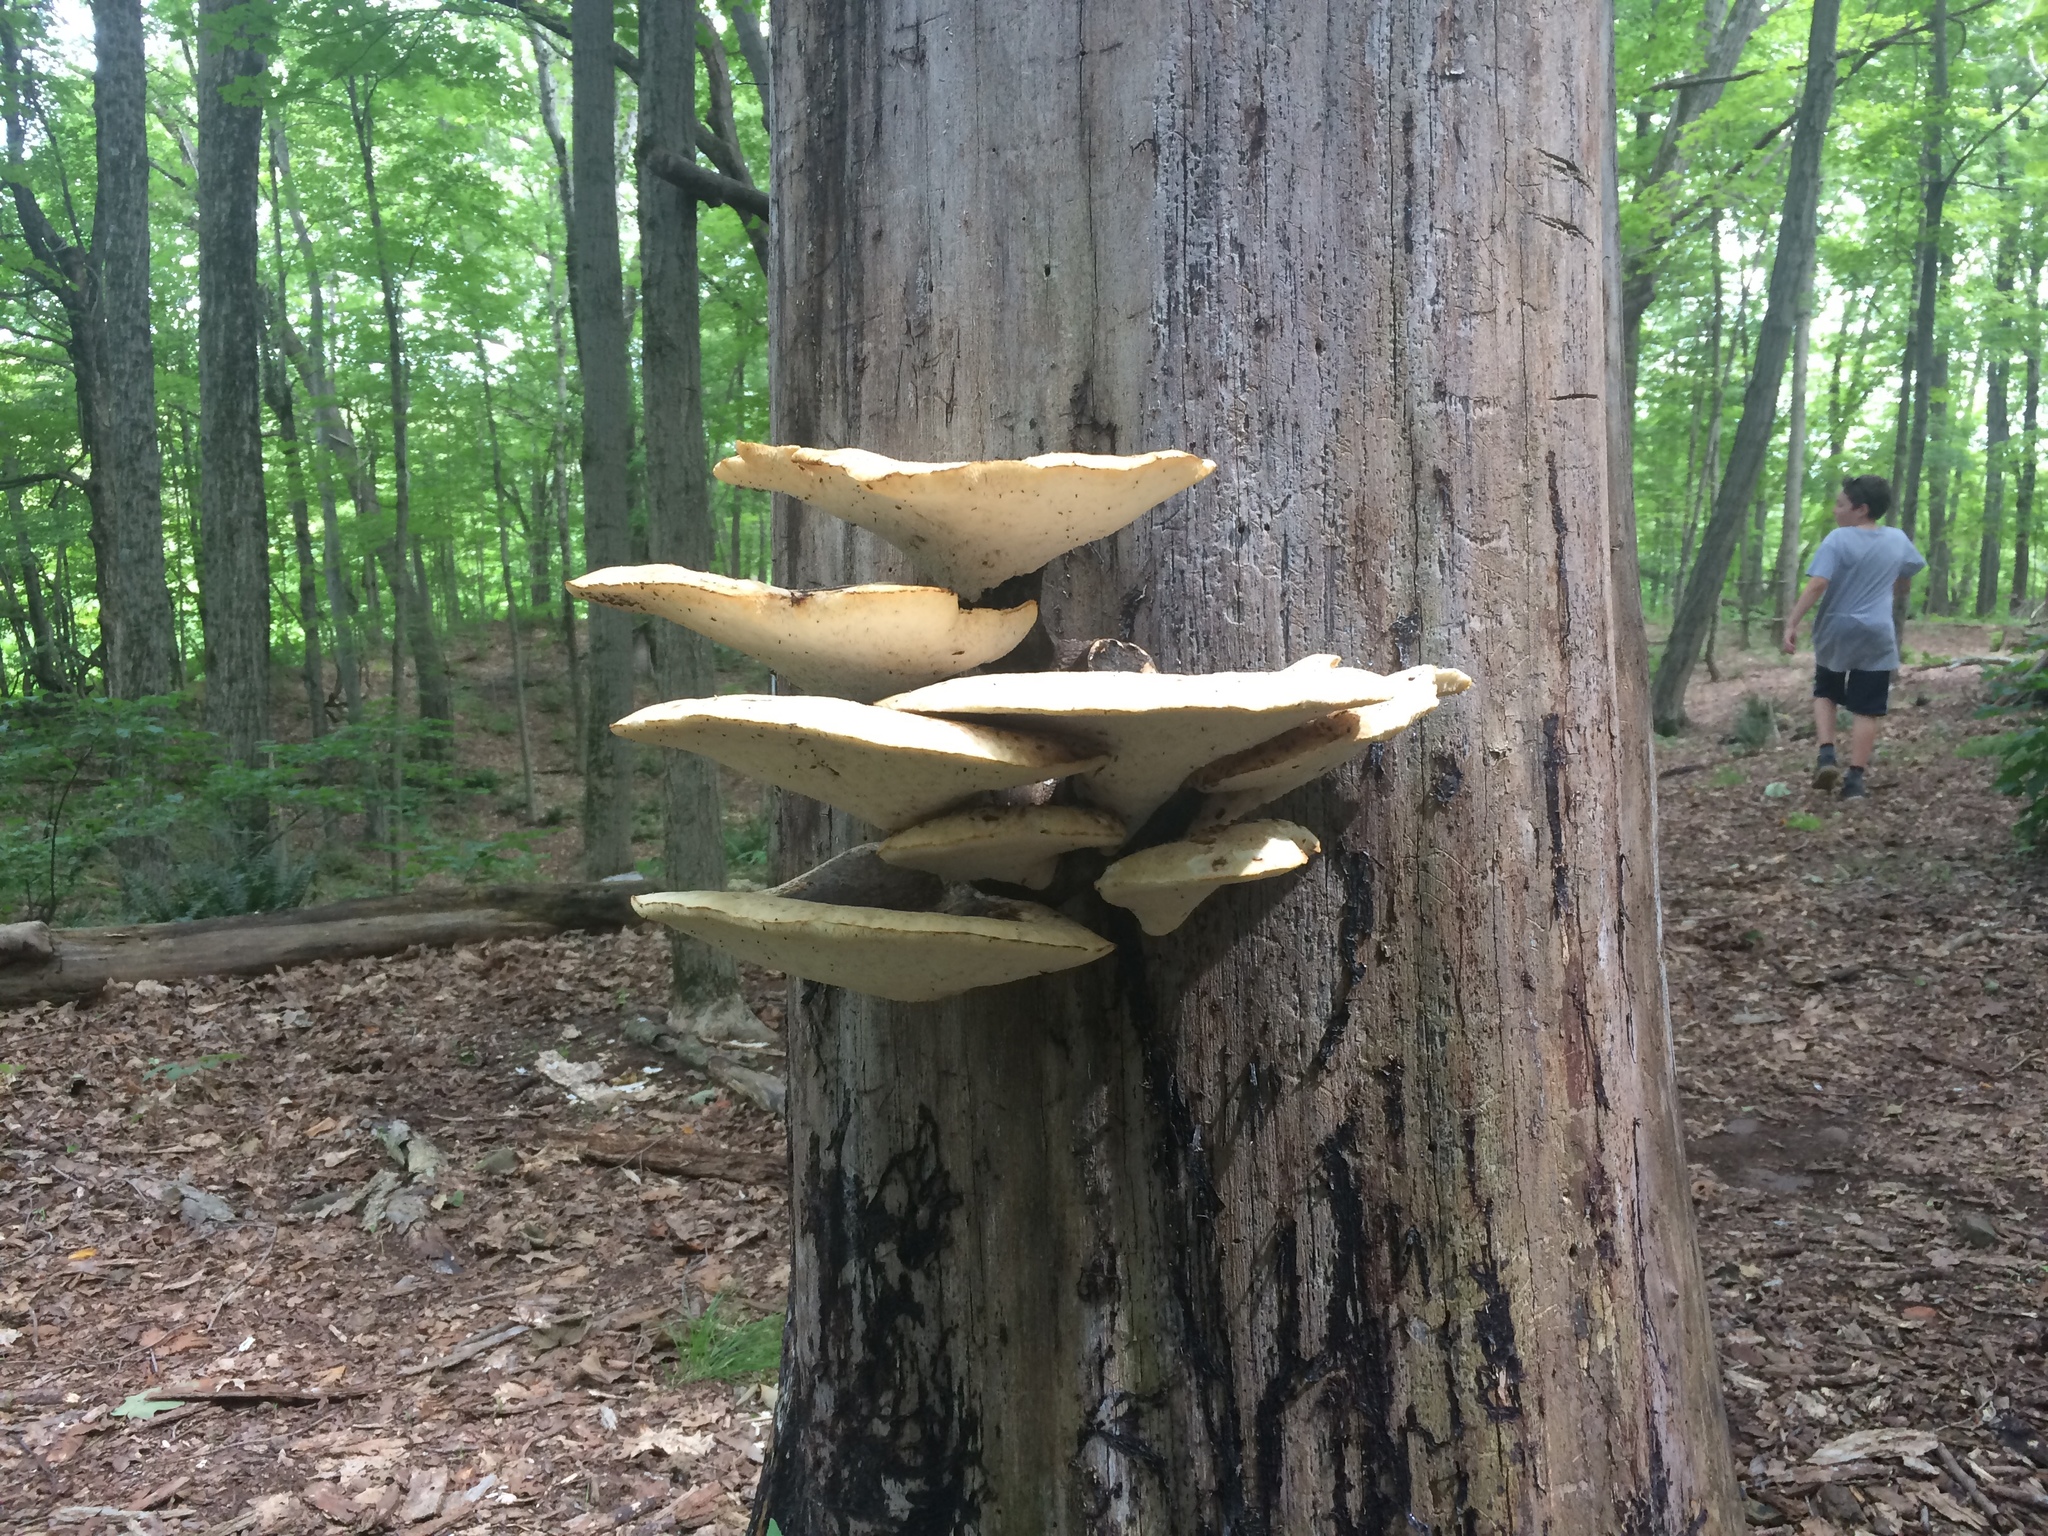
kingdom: Fungi
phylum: Basidiomycota
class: Agaricomycetes
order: Polyporales
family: Polyporaceae
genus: Cerioporus
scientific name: Cerioporus squamosus
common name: Dryad's saddle
